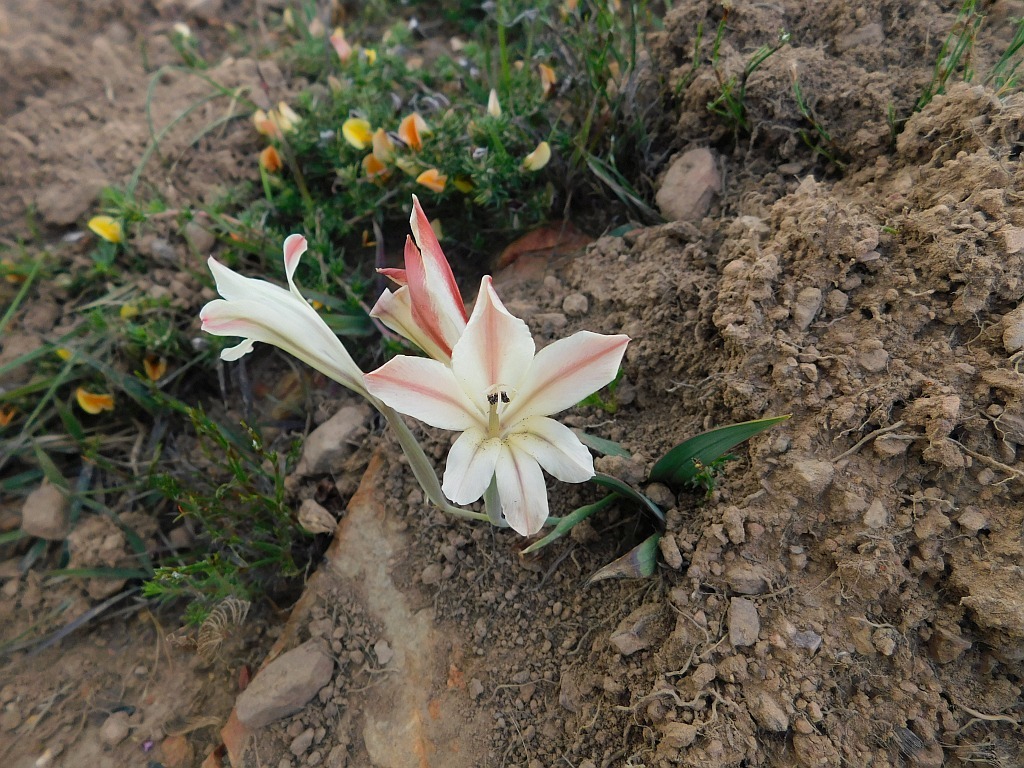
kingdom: Plantae
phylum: Tracheophyta
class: Liliopsida
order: Asparagales
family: Iridaceae
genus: Gladiolus
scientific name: Gladiolus floribundus
